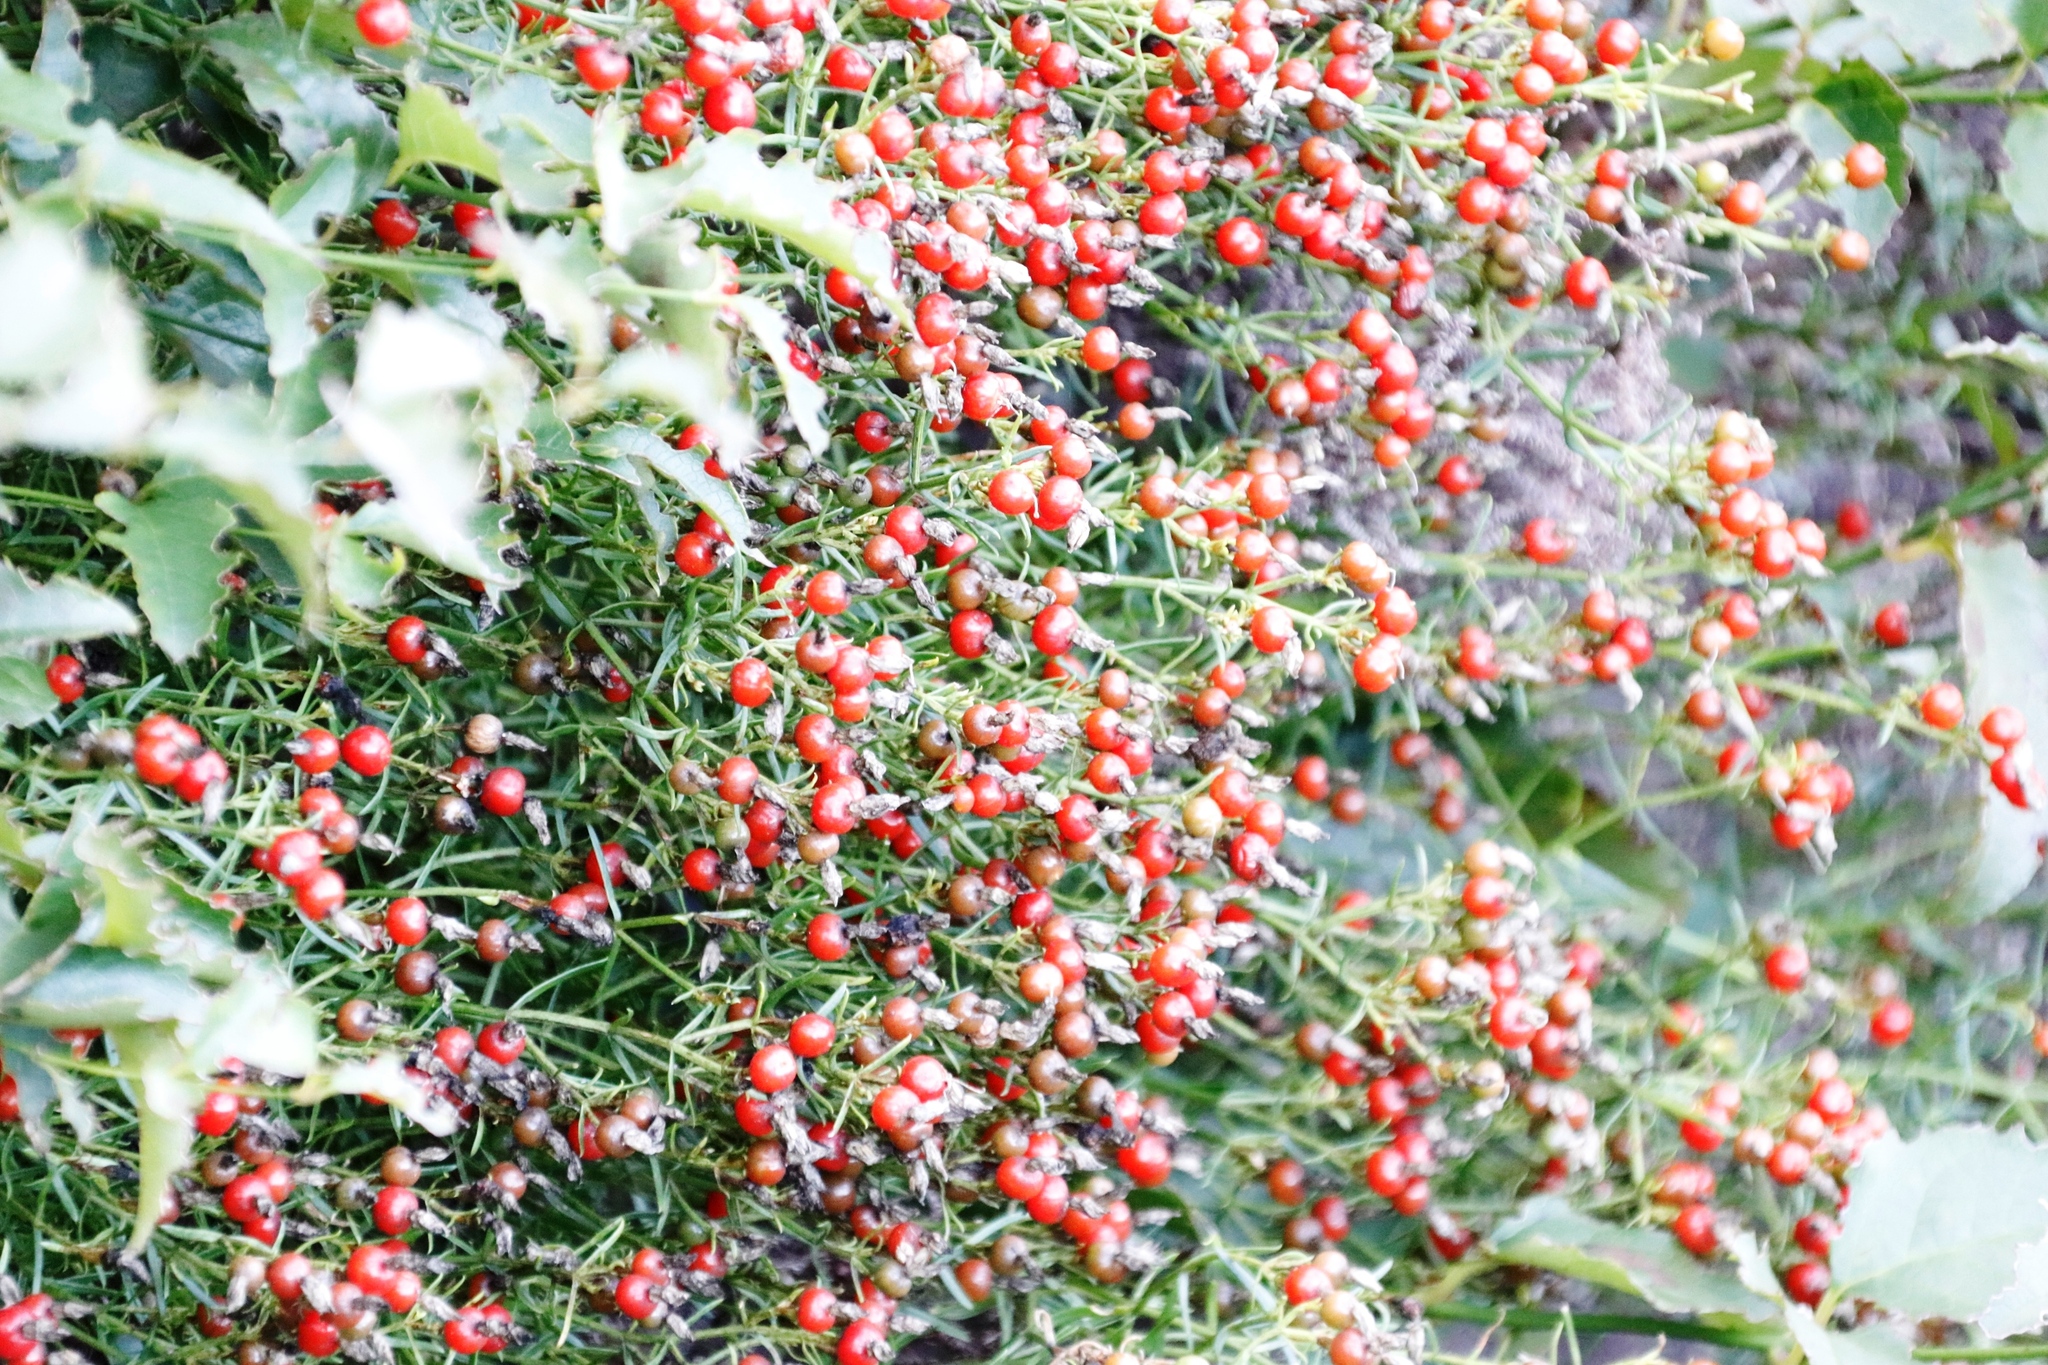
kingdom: Plantae
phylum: Tracheophyta
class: Magnoliopsida
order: Gentianales
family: Gentianaceae
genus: Chironia
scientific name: Chironia baccifera
